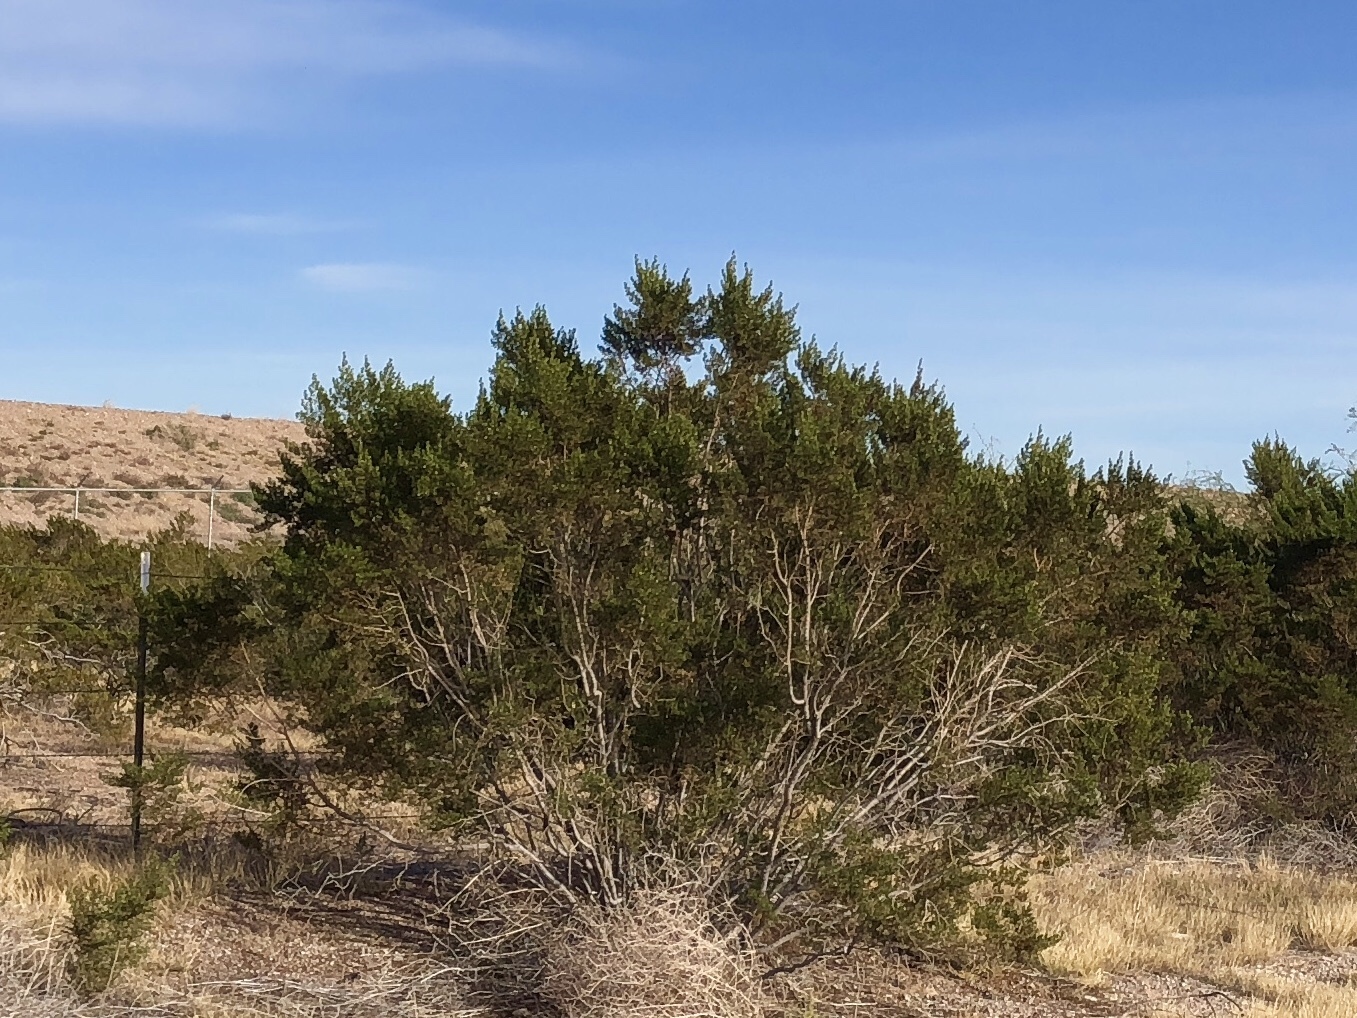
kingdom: Plantae
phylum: Tracheophyta
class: Magnoliopsida
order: Zygophyllales
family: Zygophyllaceae
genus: Larrea
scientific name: Larrea tridentata
